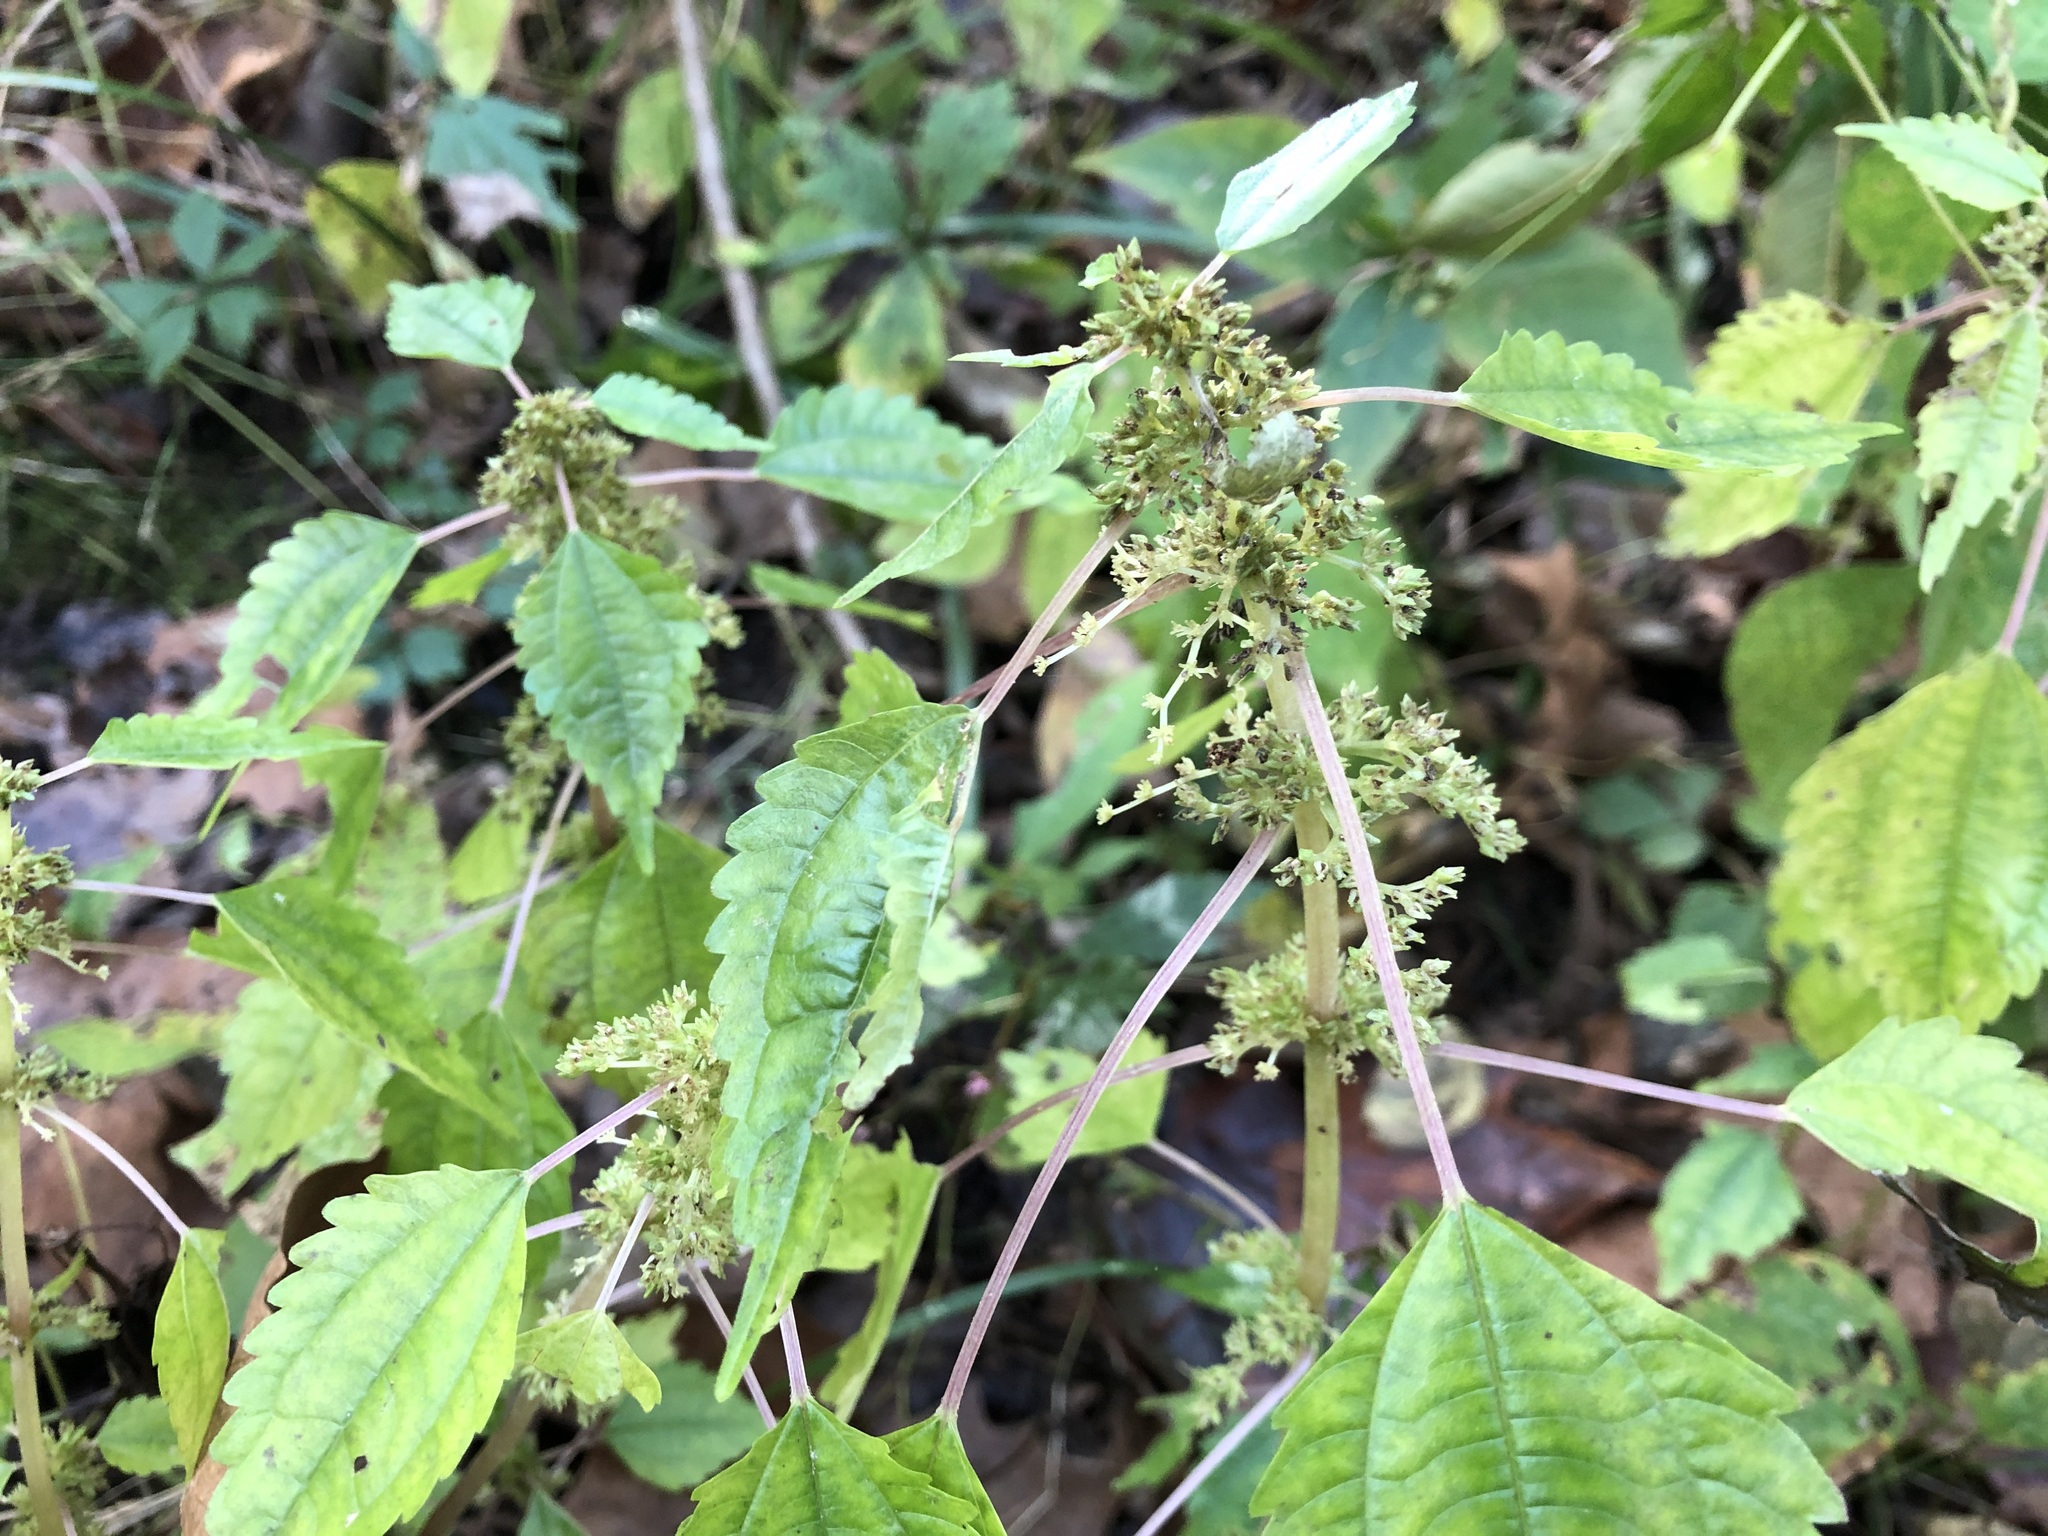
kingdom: Plantae
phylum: Tracheophyta
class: Magnoliopsida
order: Rosales
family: Urticaceae
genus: Pilea
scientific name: Pilea pumila
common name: Clearweed
